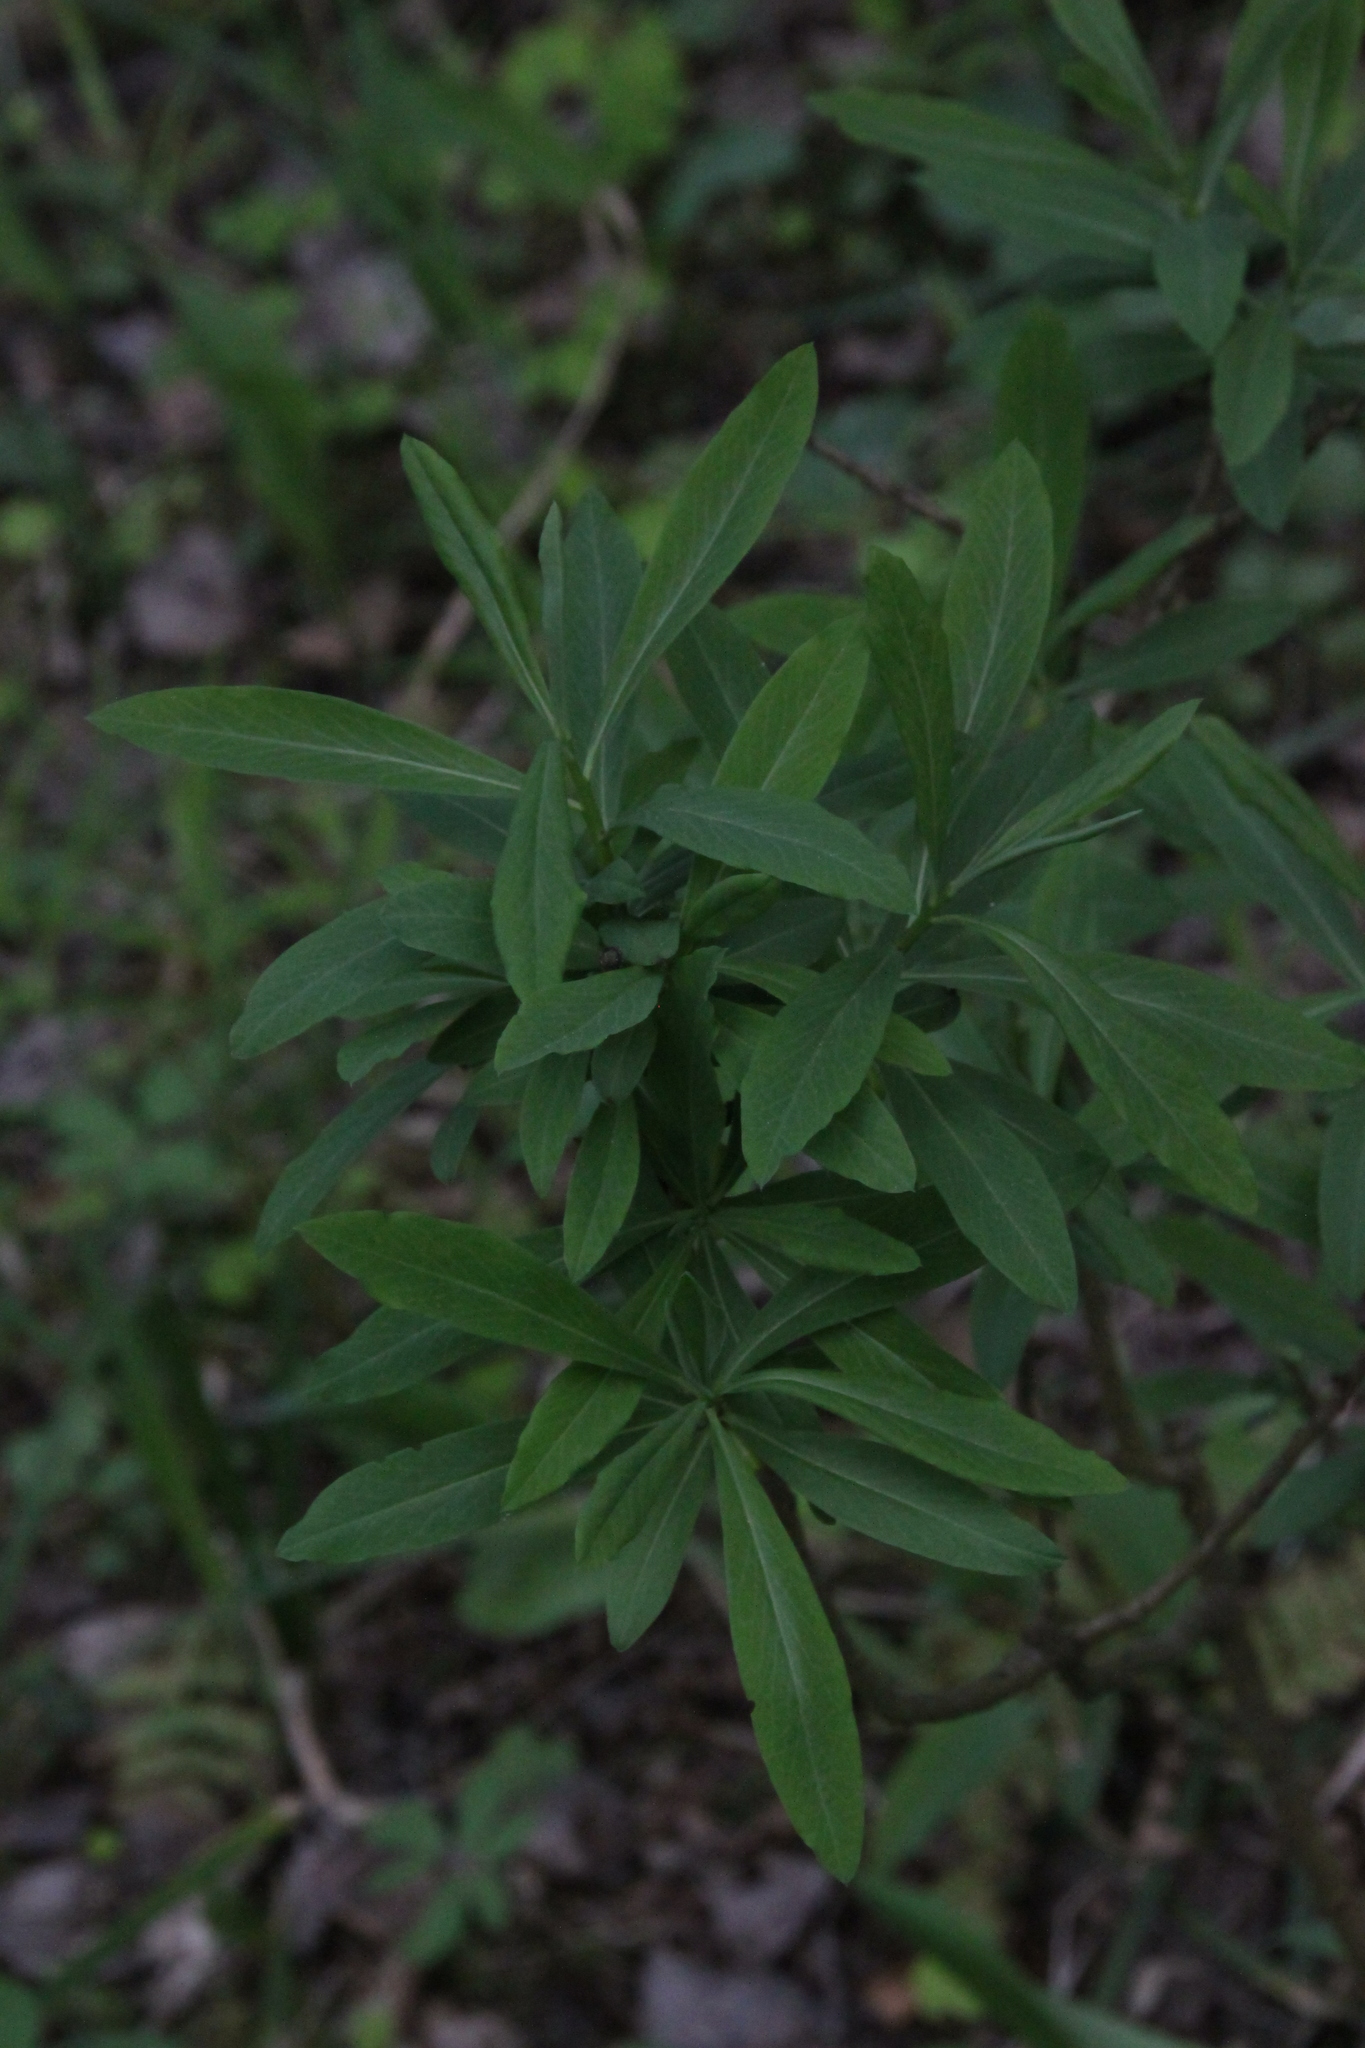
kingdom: Plantae
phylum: Tracheophyta
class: Magnoliopsida
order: Malvales
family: Thymelaeaceae
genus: Daphne
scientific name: Daphne mezereum
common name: Mezereon
